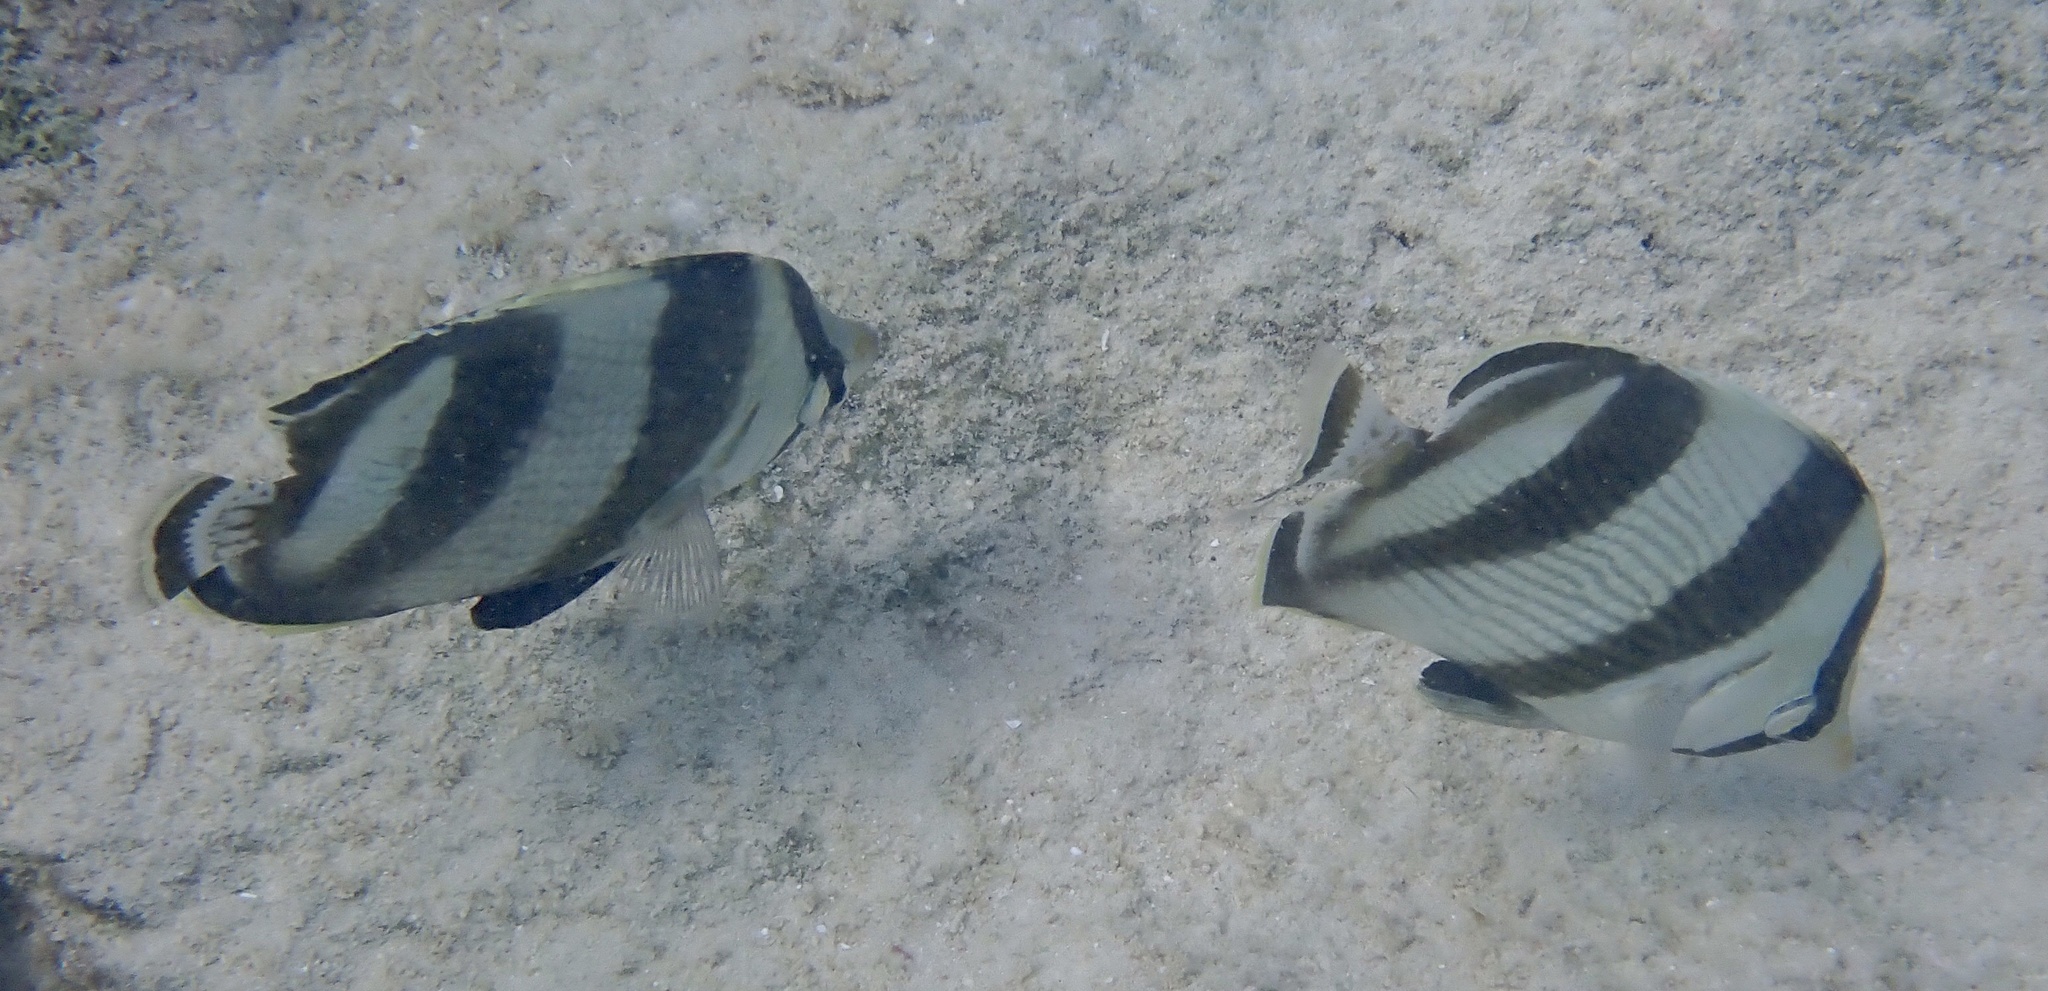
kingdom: Animalia
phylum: Chordata
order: Perciformes
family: Chaetodontidae
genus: Chaetodon
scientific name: Chaetodon striatus
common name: Banded butterflyfish
